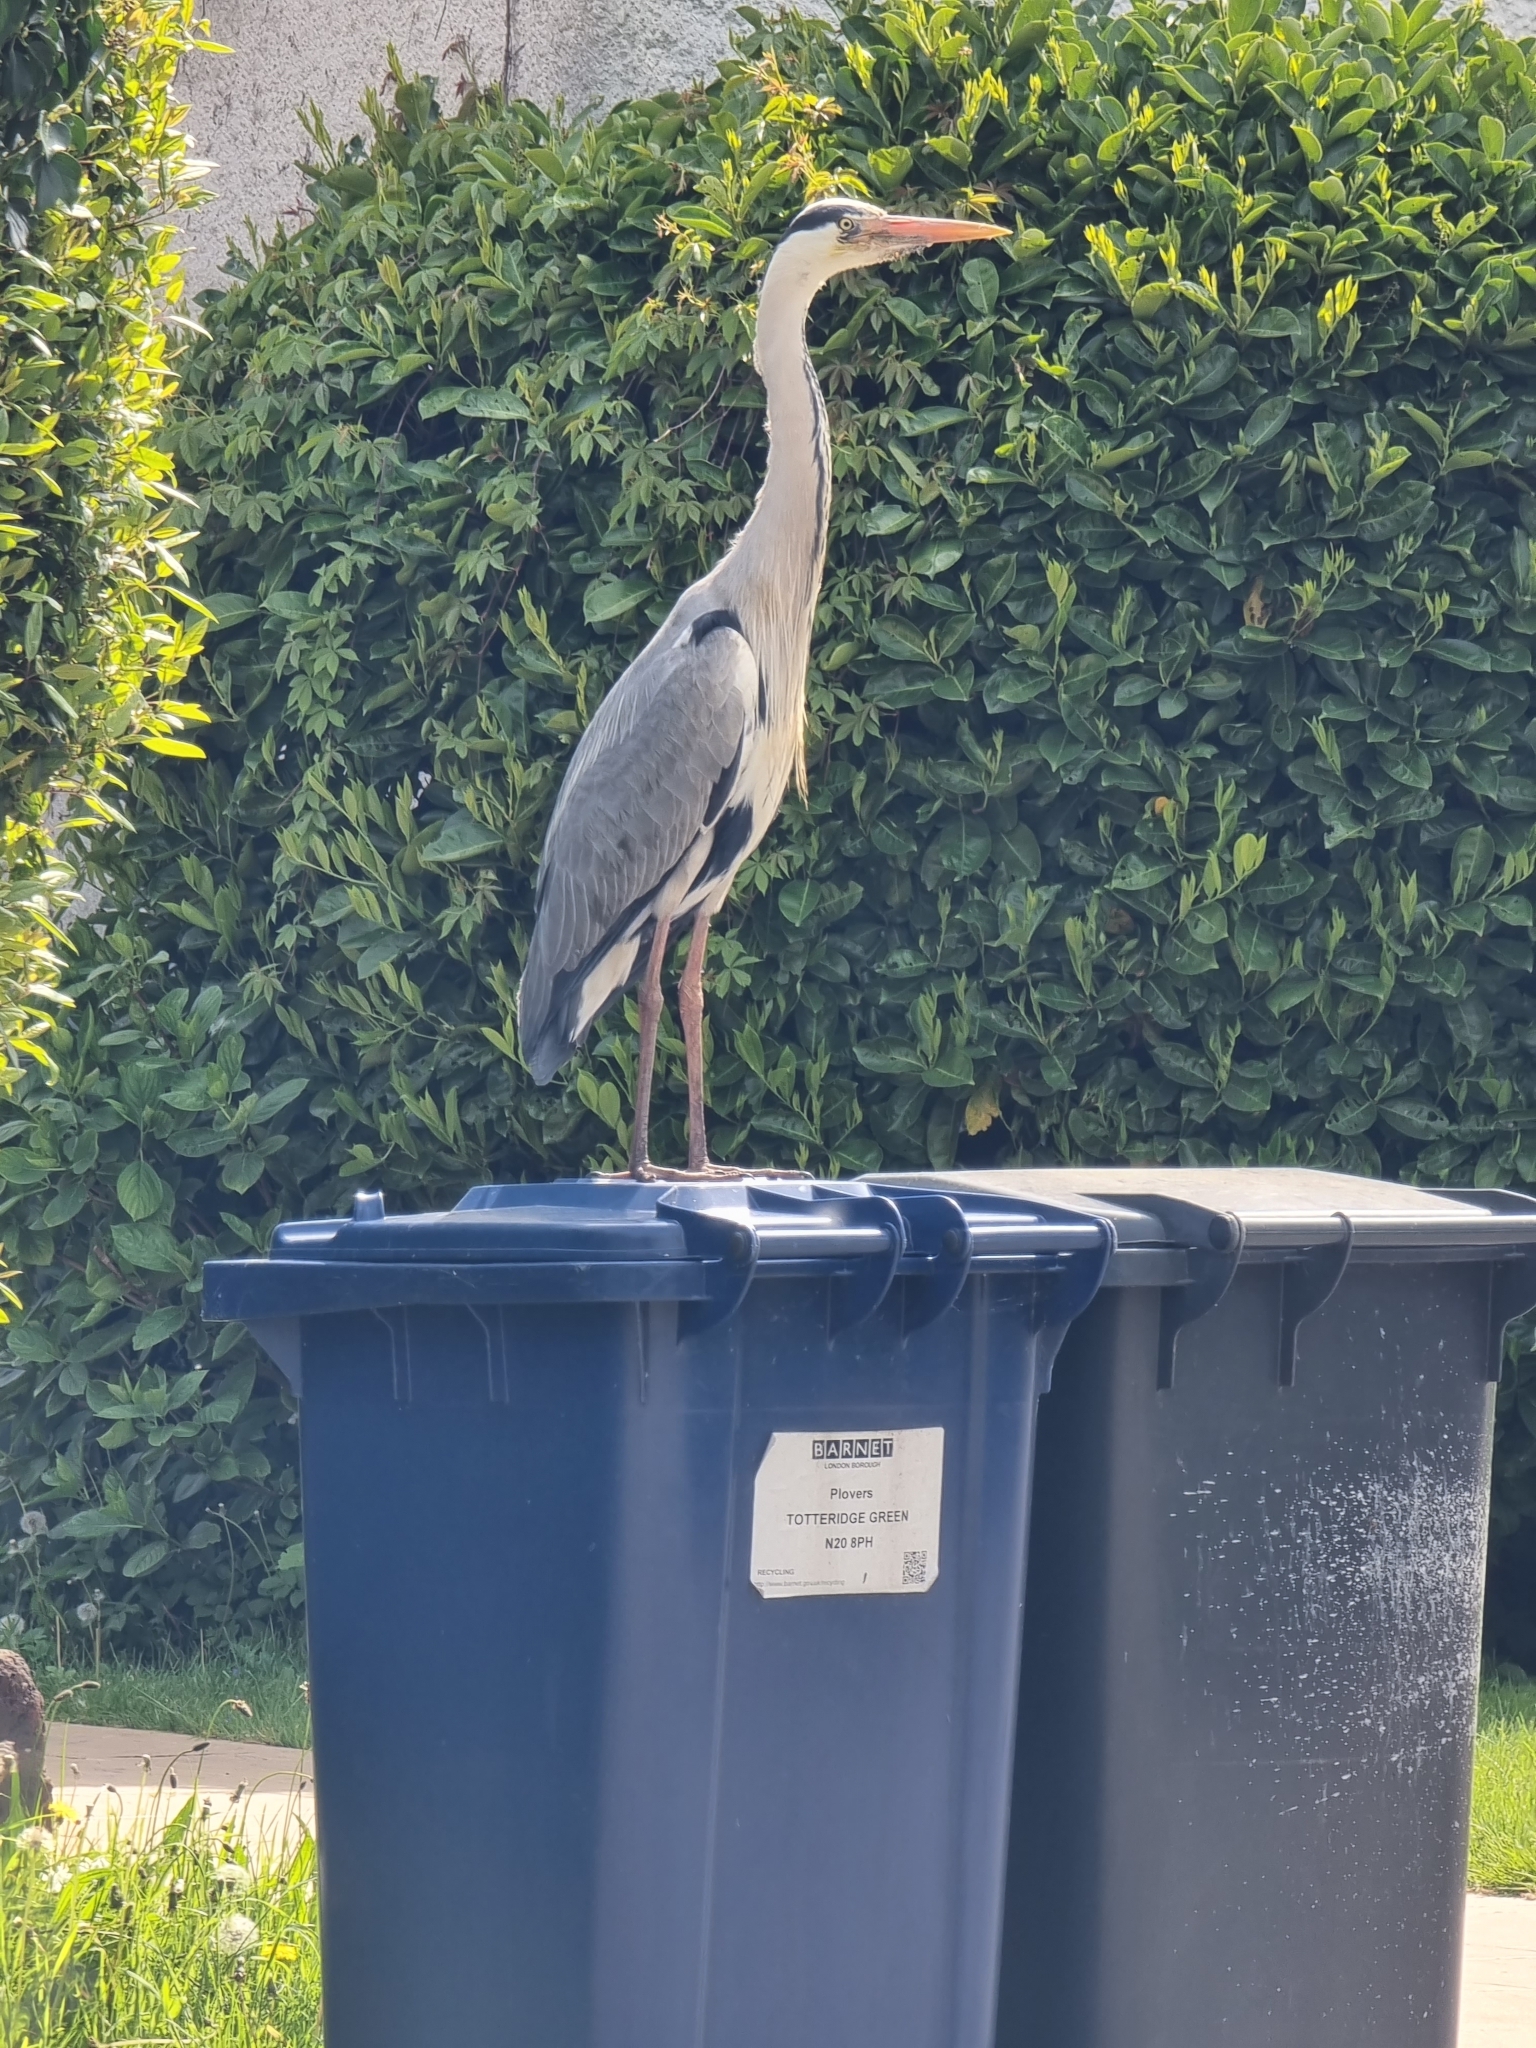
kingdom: Animalia
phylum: Chordata
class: Aves
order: Pelecaniformes
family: Ardeidae
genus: Ardea
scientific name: Ardea cinerea
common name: Grey heron
